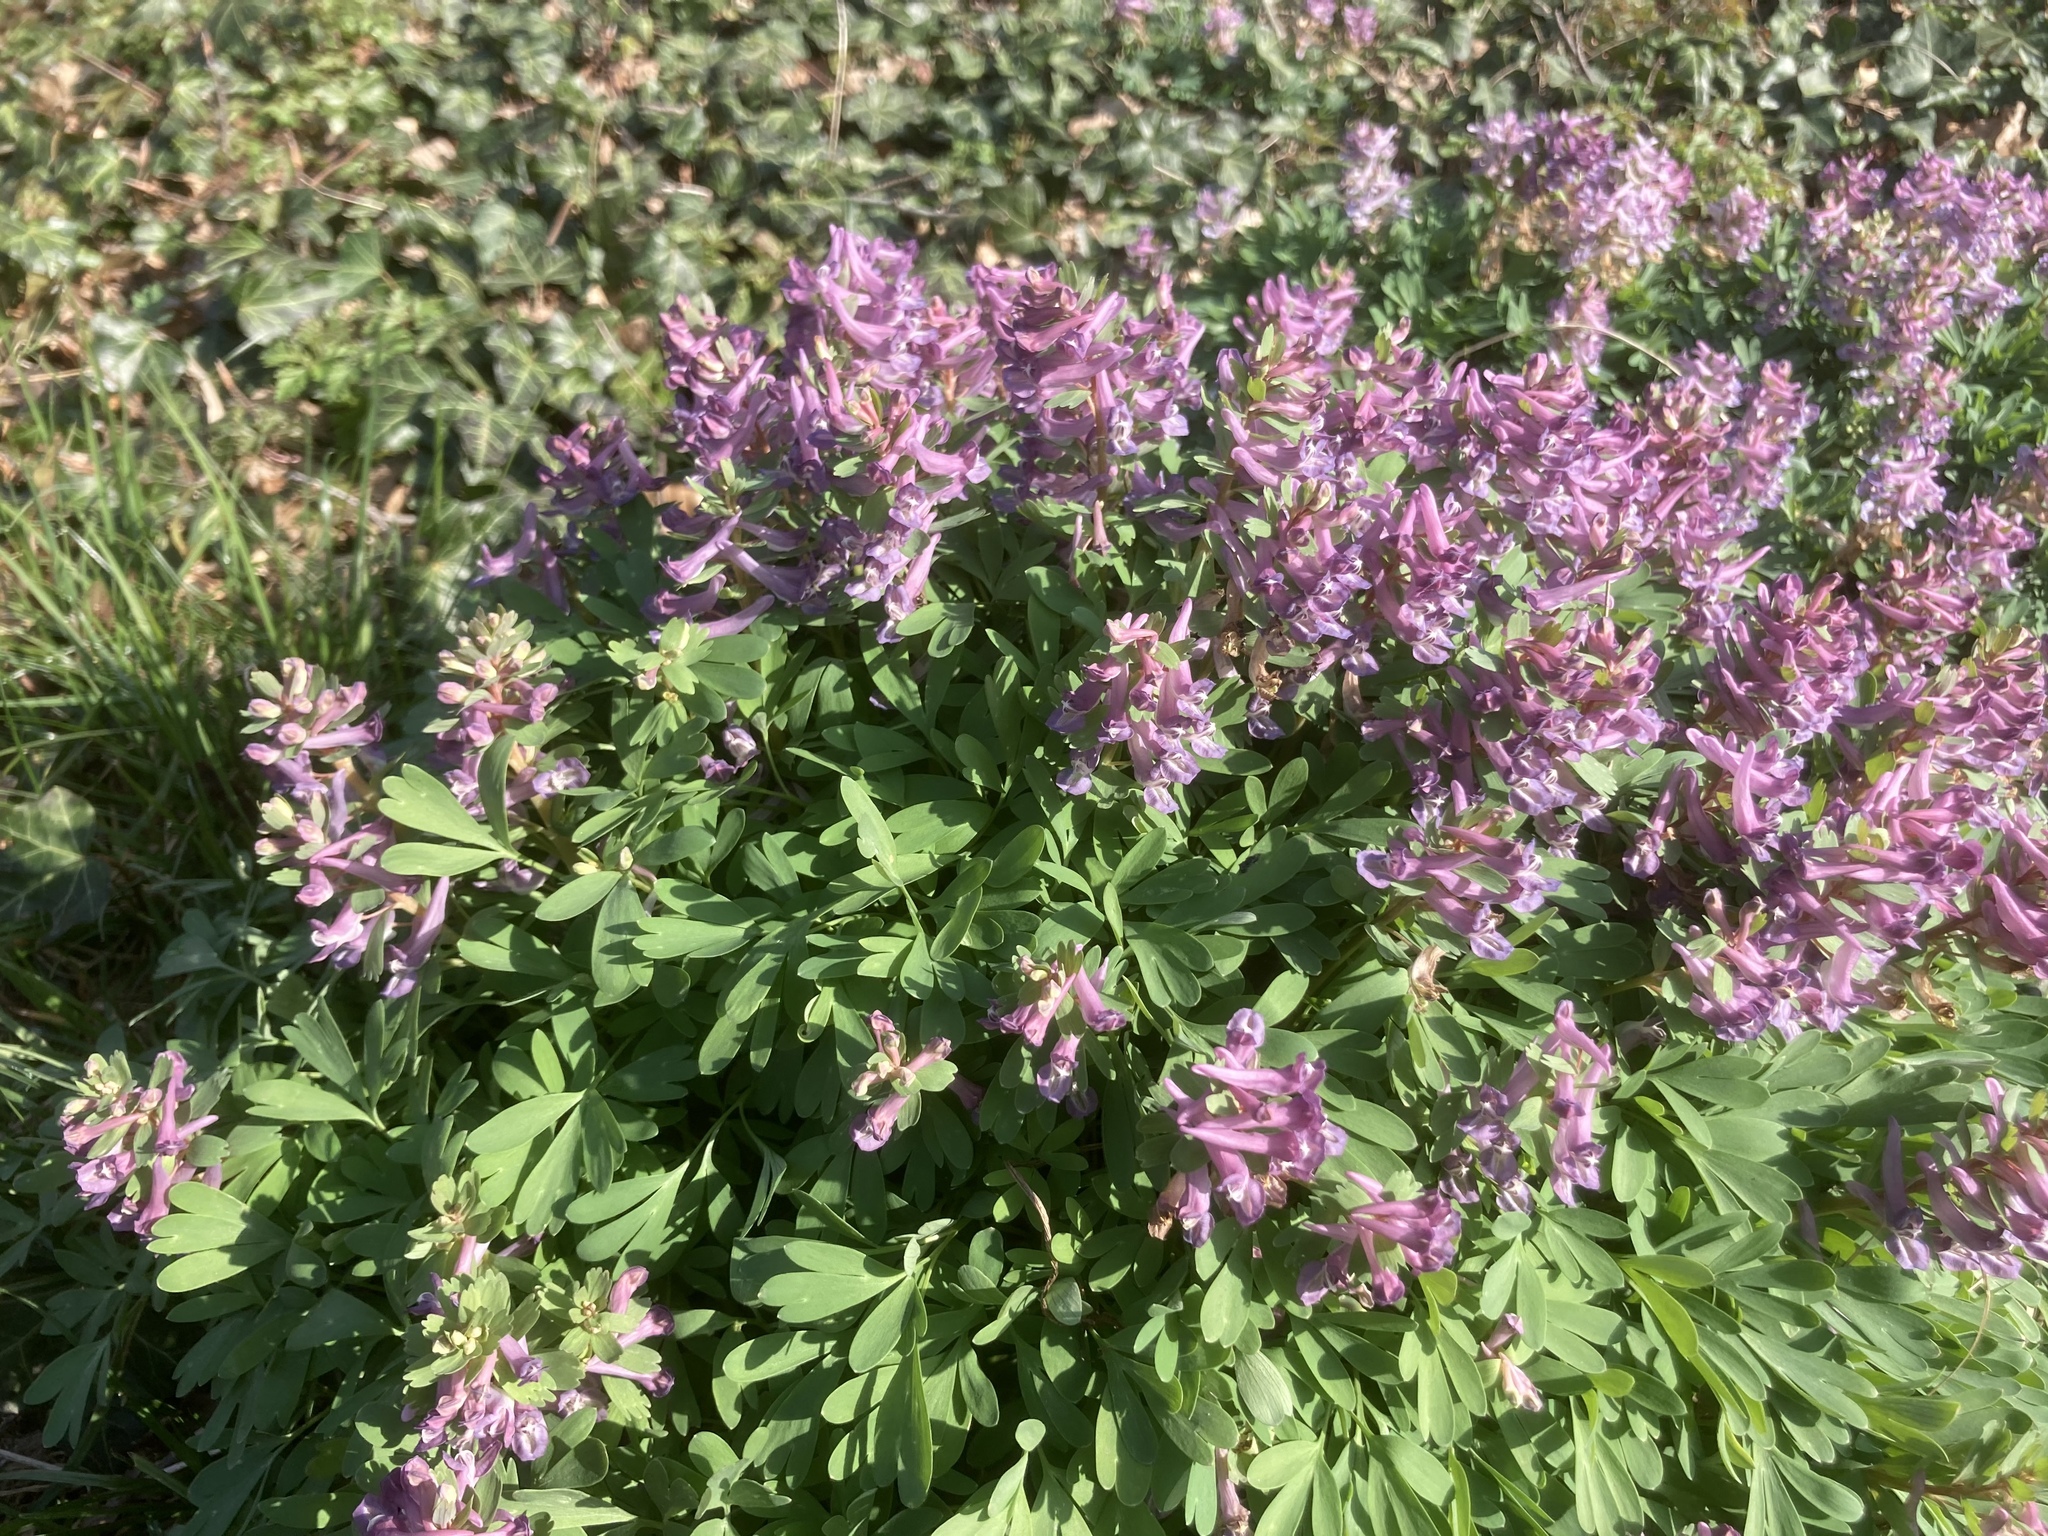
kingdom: Plantae
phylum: Tracheophyta
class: Magnoliopsida
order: Ranunculales
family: Papaveraceae
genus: Corydalis
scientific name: Corydalis solida
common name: Bird-in-a-bush
